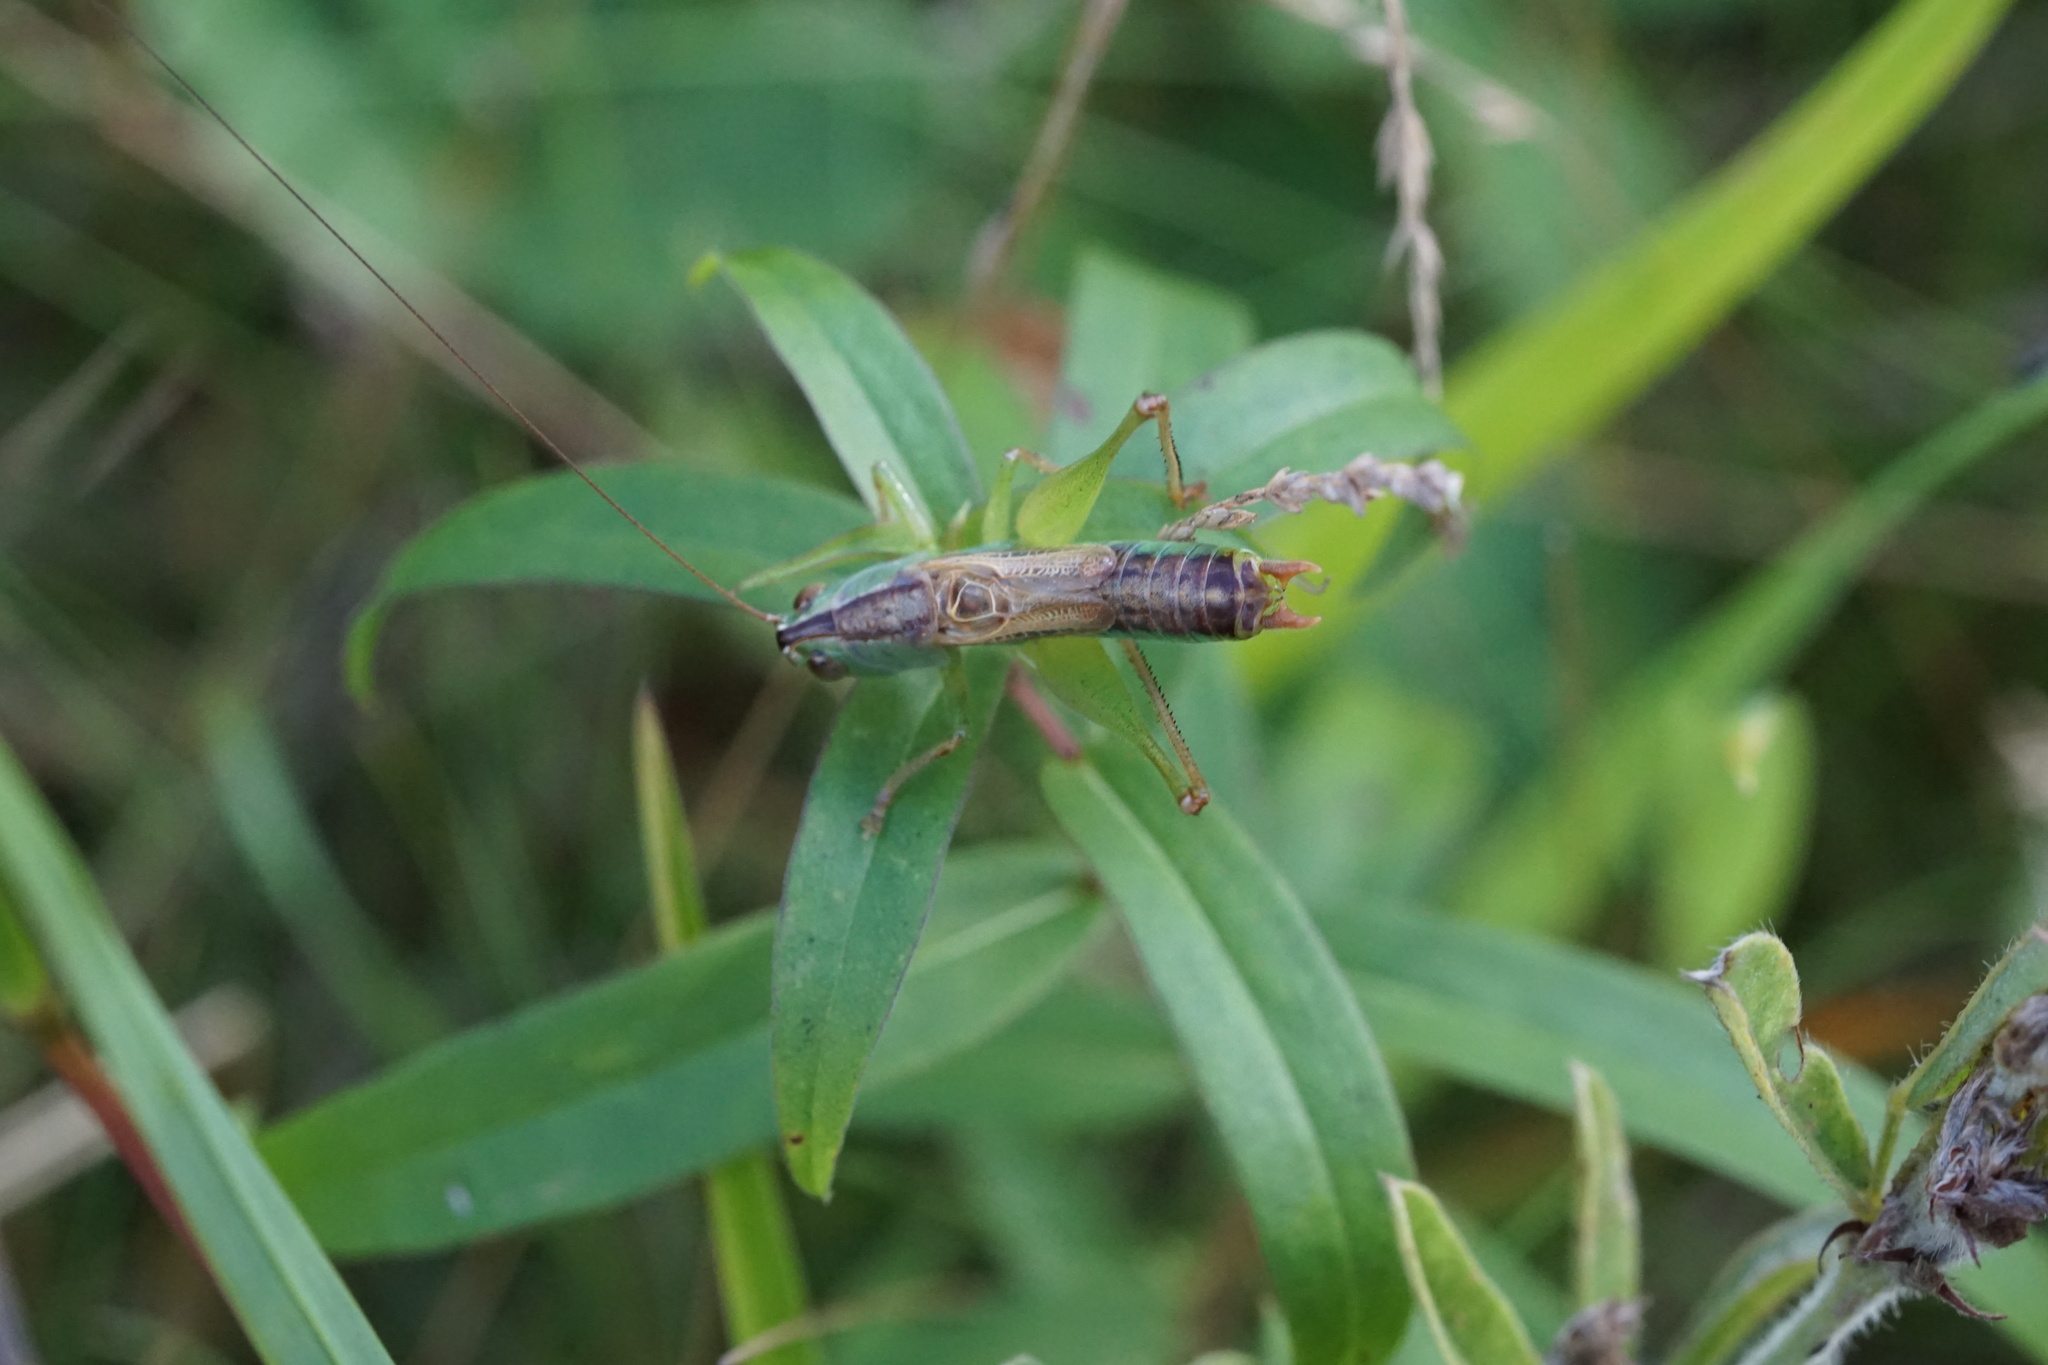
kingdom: Animalia
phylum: Arthropoda
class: Insecta
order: Orthoptera
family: Tettigoniidae
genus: Conocephalus
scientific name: Conocephalus strictus
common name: Straight-lanced katydid
